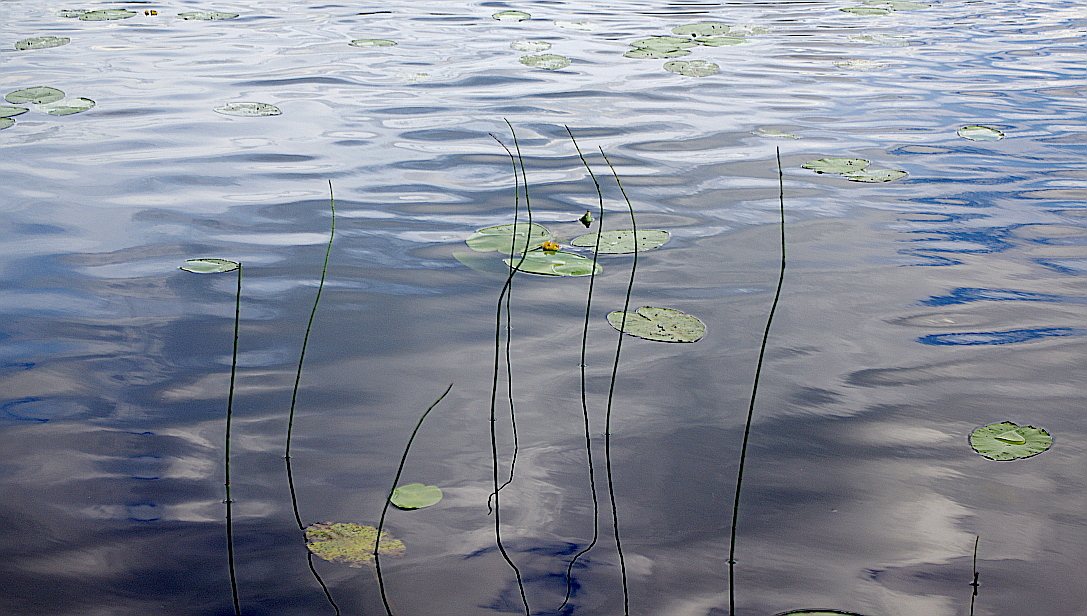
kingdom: Plantae
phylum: Tracheophyta
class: Polypodiopsida
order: Equisetales
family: Equisetaceae
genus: Equisetum
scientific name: Equisetum fluviatile
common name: Water horsetail
